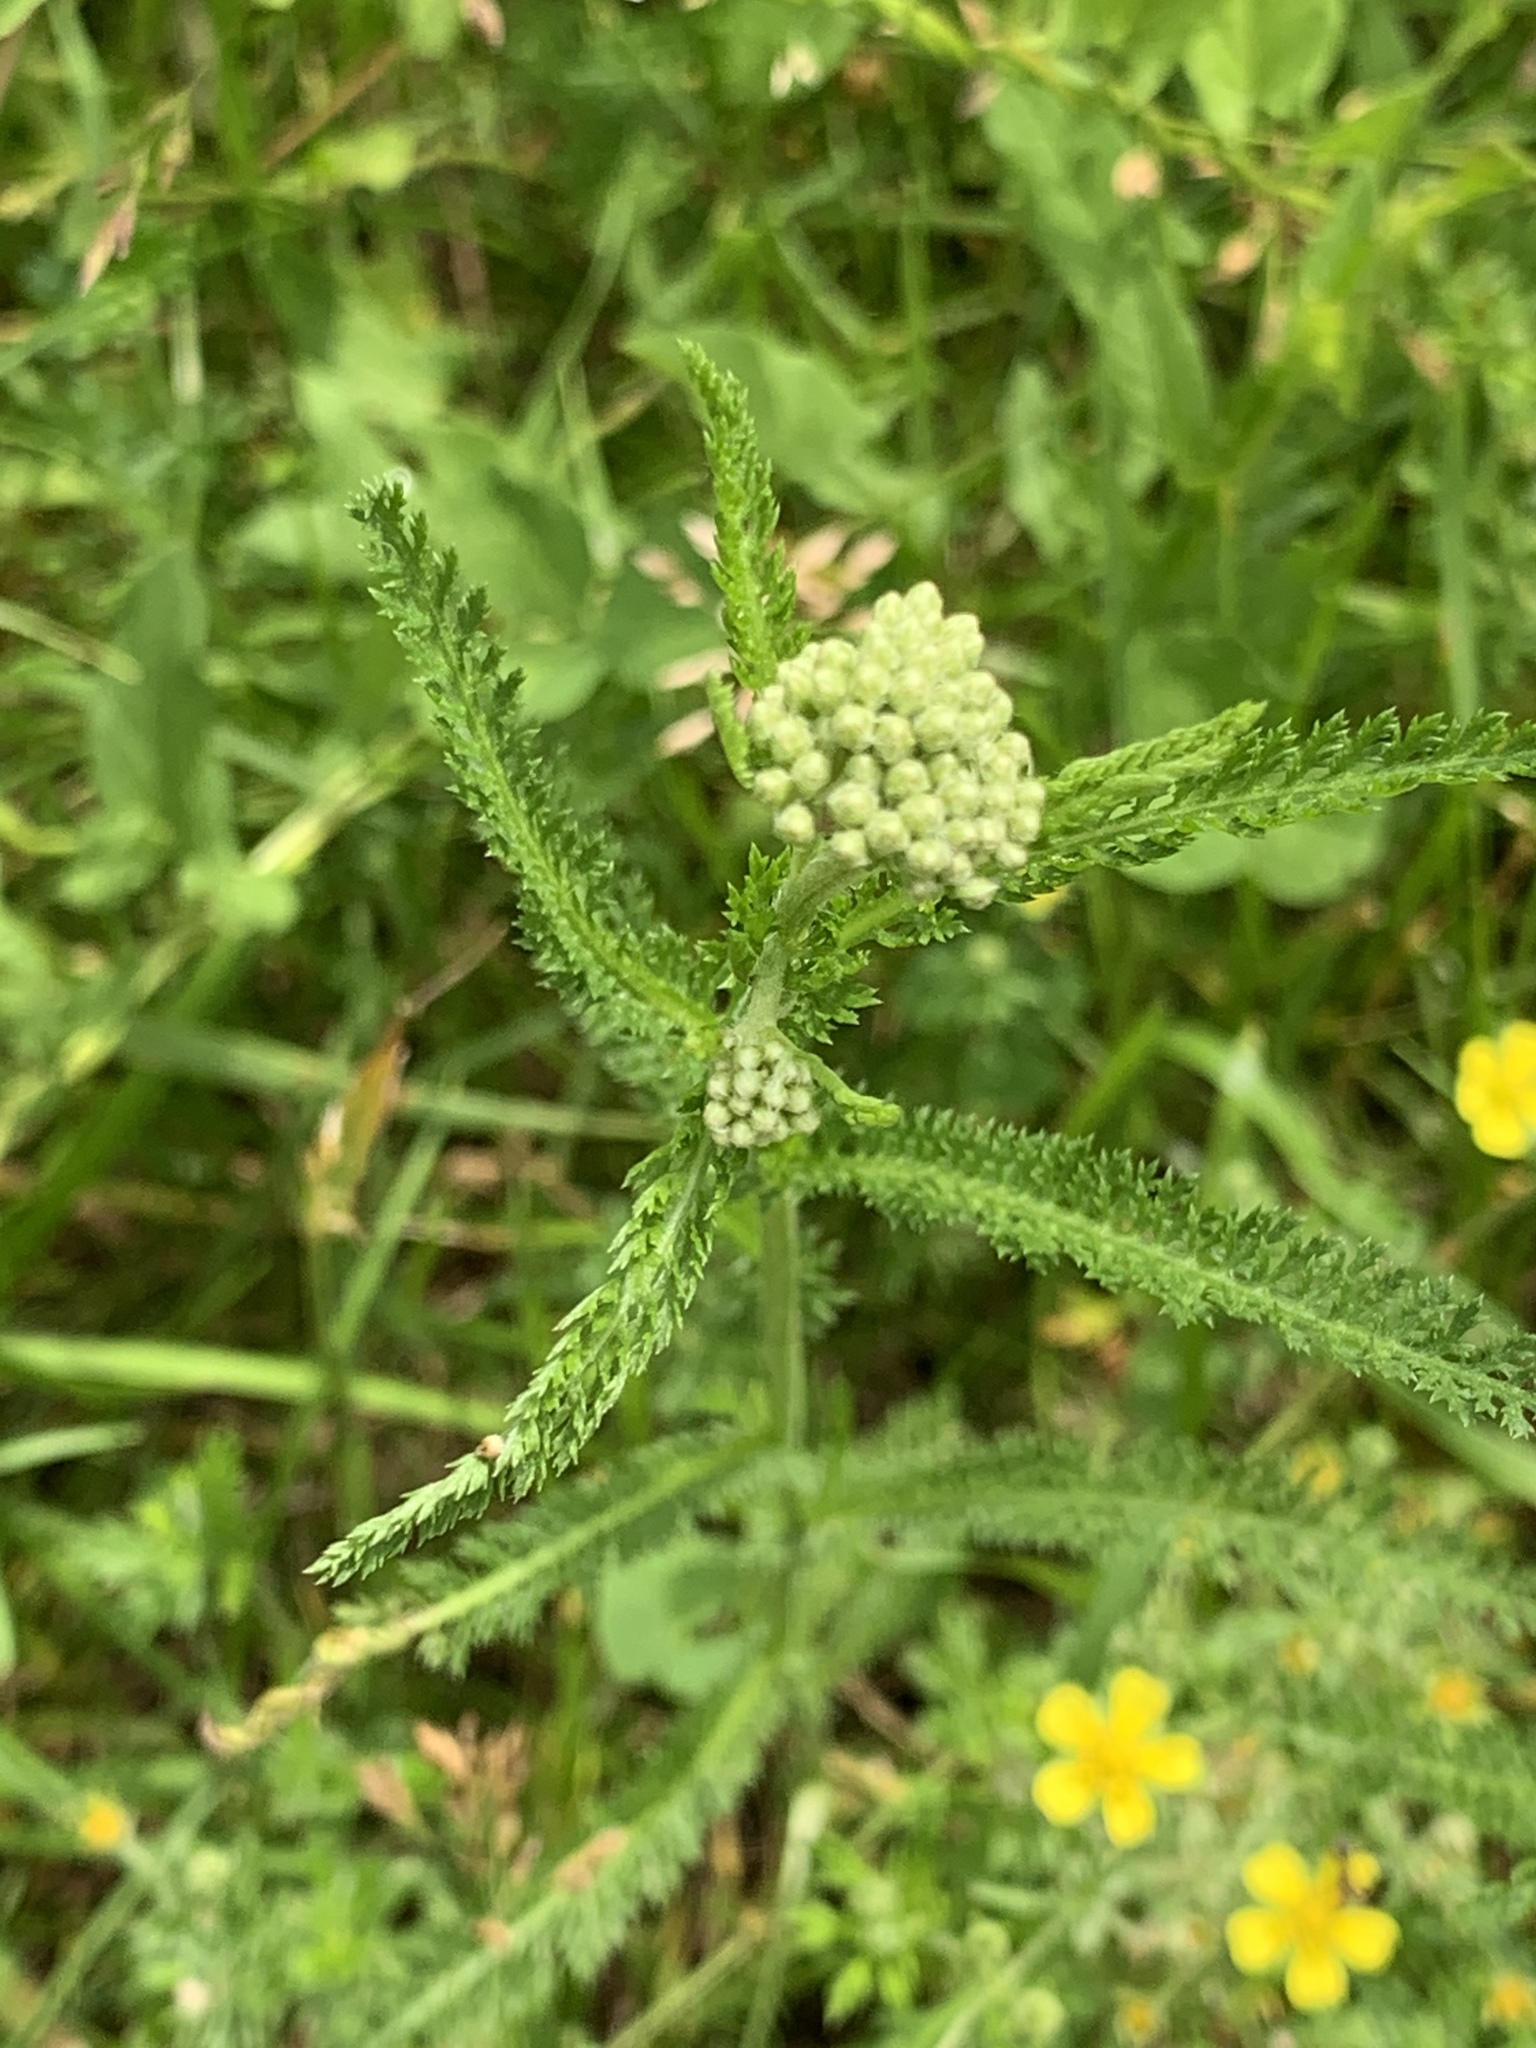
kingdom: Plantae
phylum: Tracheophyta
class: Magnoliopsida
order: Asterales
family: Asteraceae
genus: Achillea
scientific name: Achillea millefolium
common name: Yarrow
